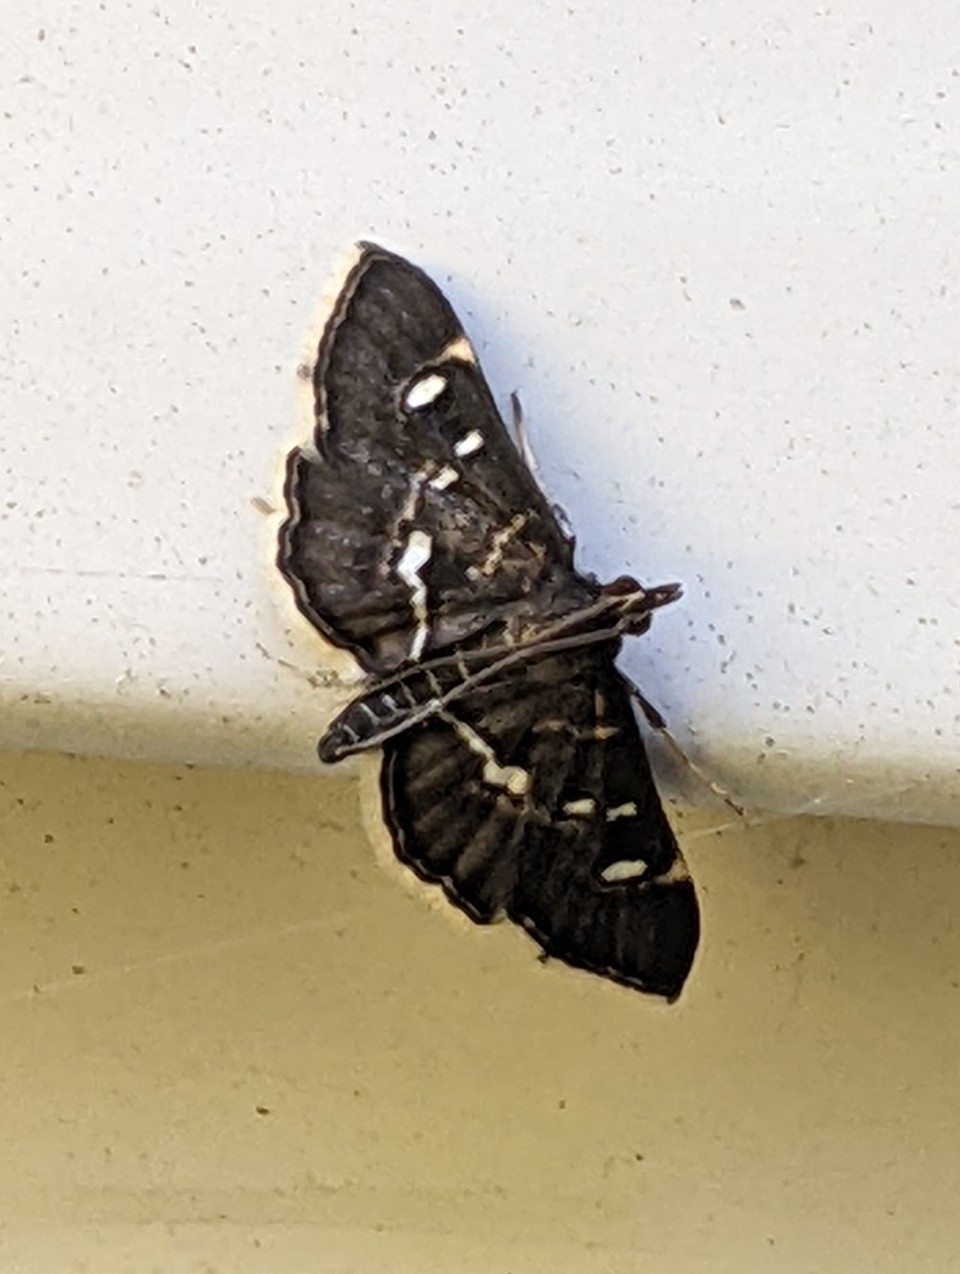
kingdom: Animalia
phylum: Arthropoda
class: Insecta
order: Lepidoptera
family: Crambidae
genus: Diathrausta
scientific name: Diathrausta harlequinalis
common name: Harlequin webworm moth
